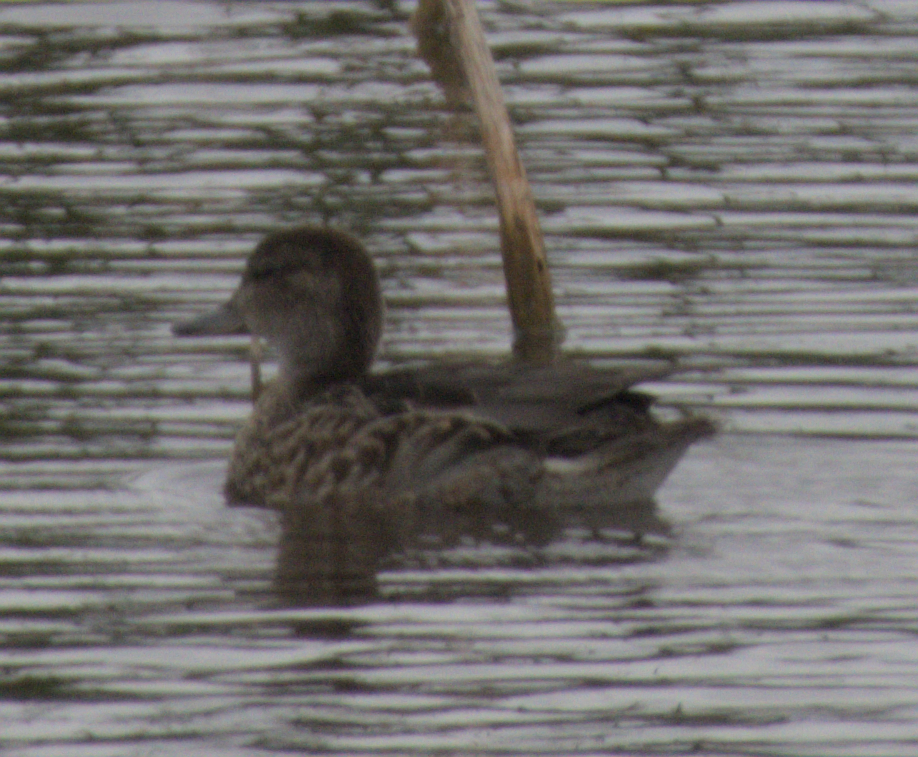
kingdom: Animalia
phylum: Chordata
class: Aves
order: Anseriformes
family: Anatidae
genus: Anas
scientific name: Anas crecca
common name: Eurasian teal
